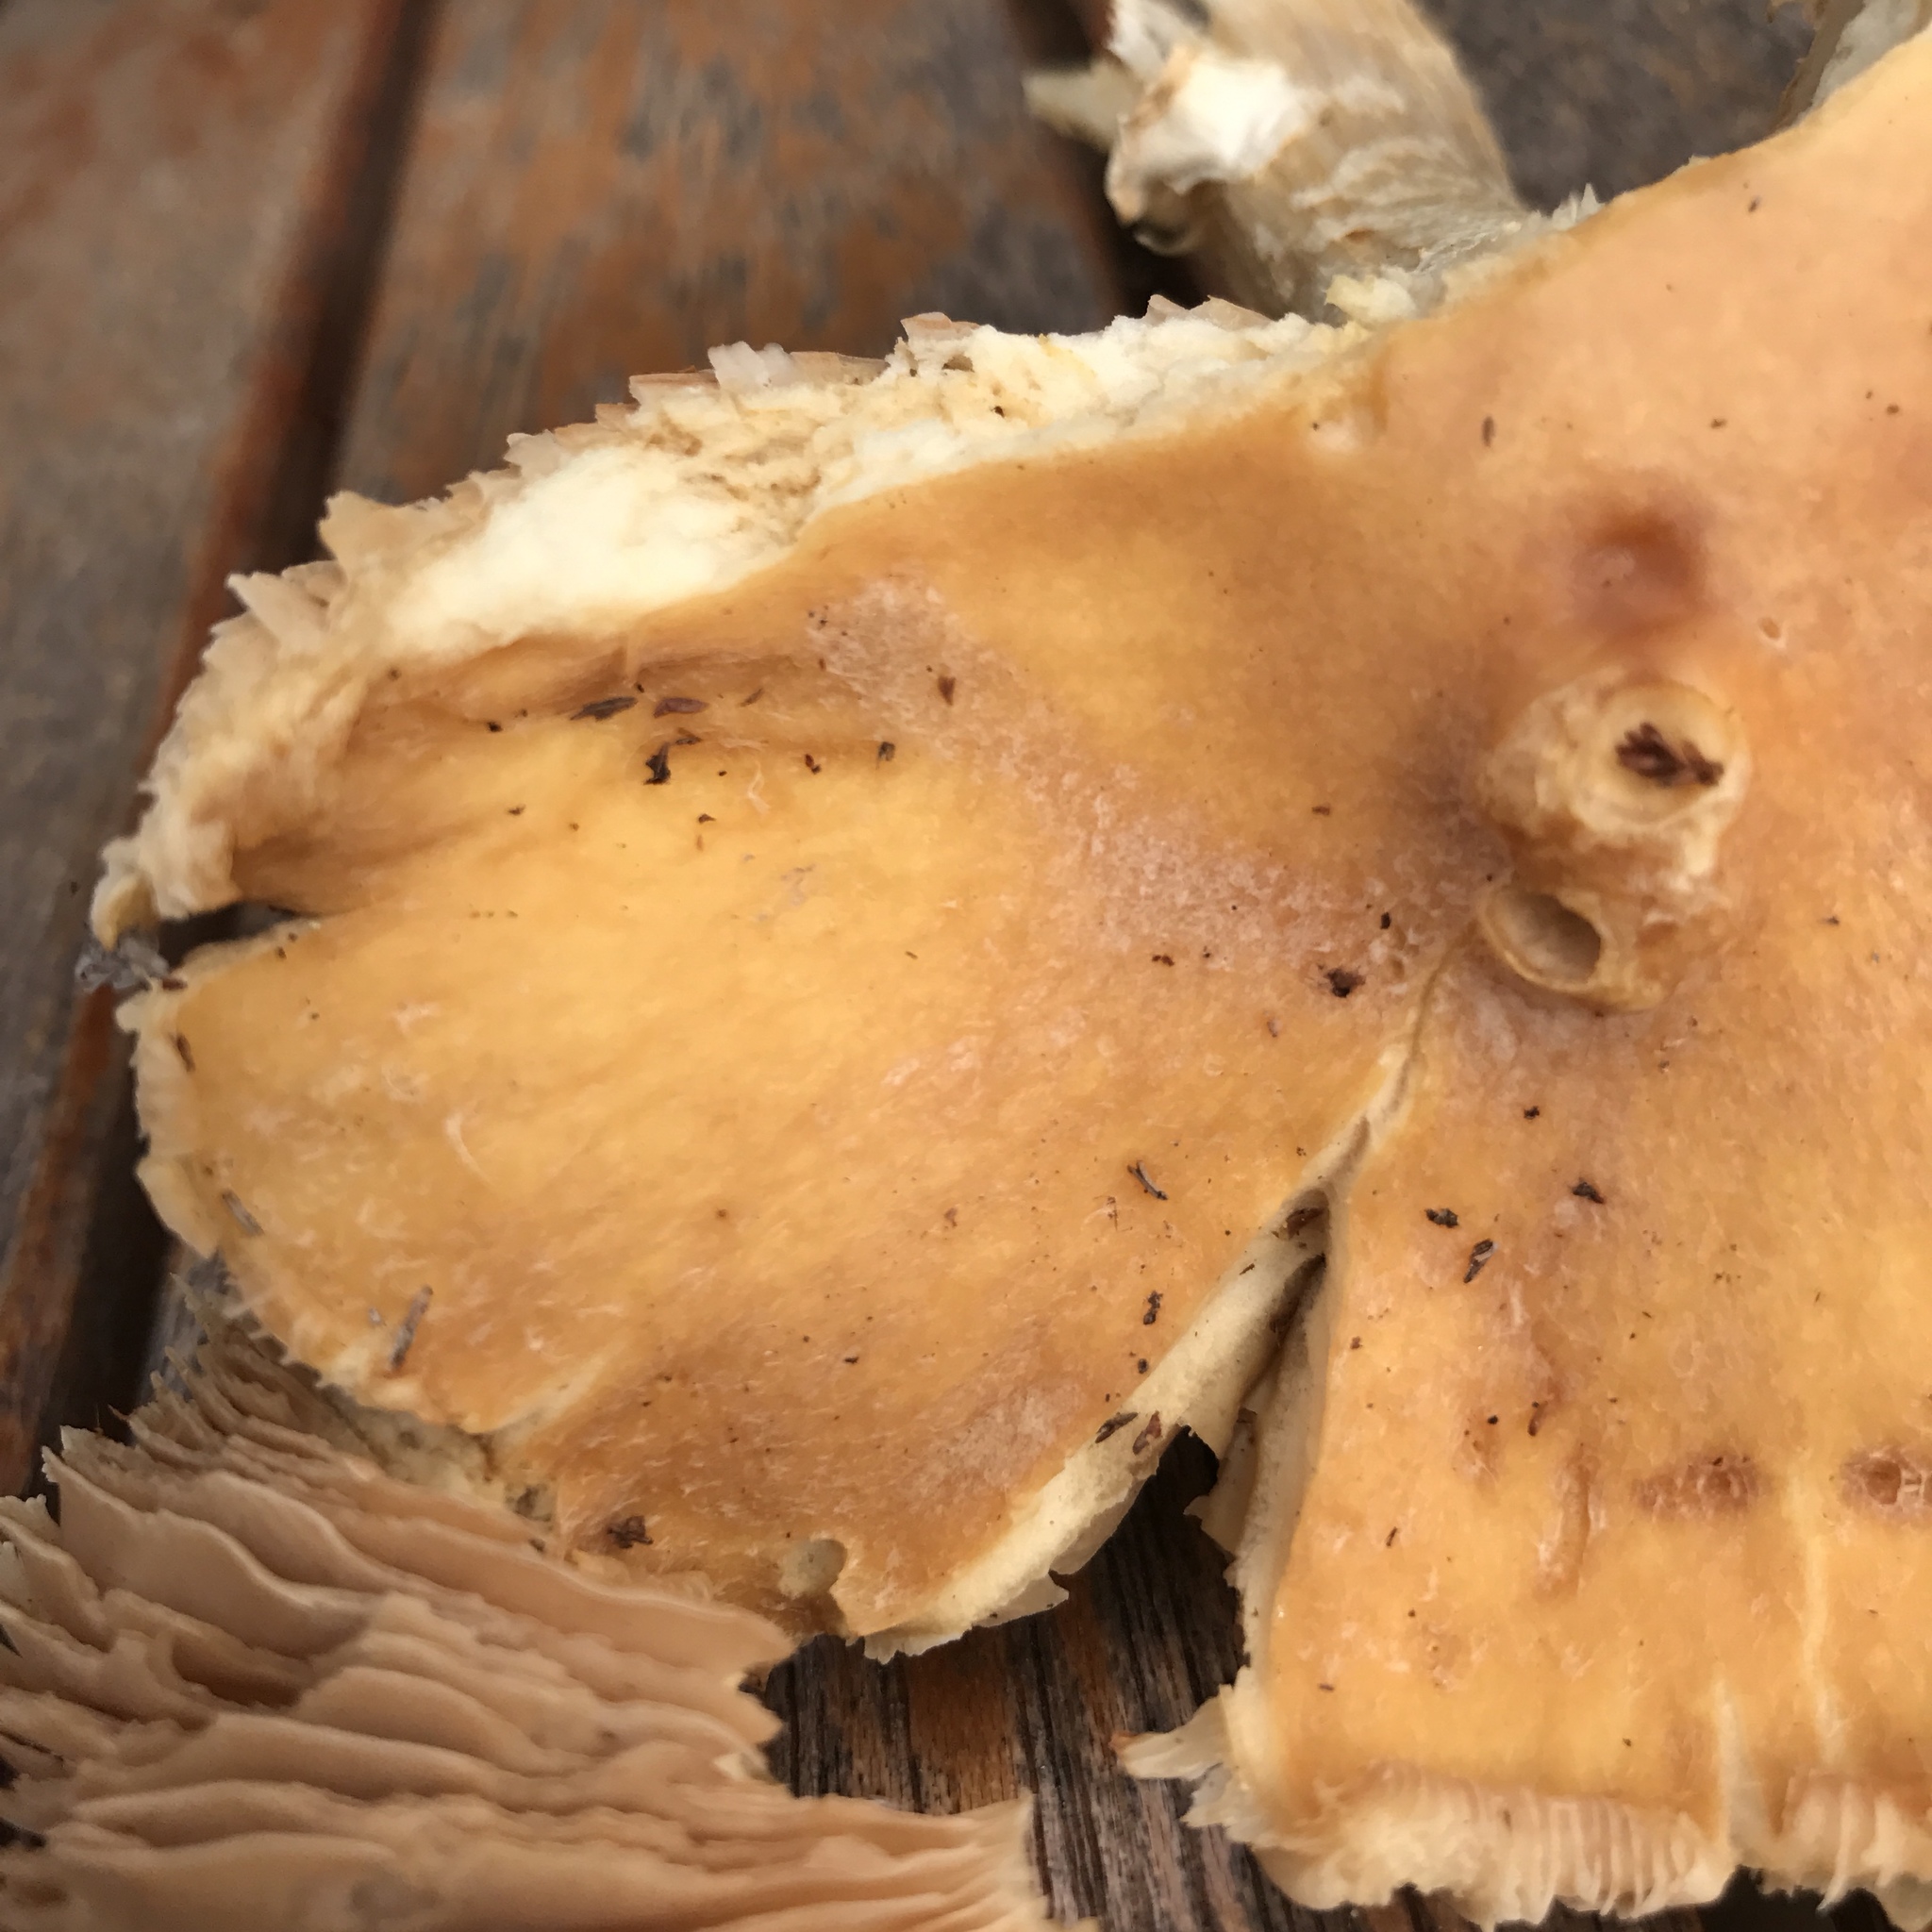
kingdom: Fungi
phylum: Basidiomycota
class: Agaricomycetes
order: Agaricales
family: Cortinariaceae
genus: Cortinarius
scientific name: Cortinarius caperatus
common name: The gypsy
